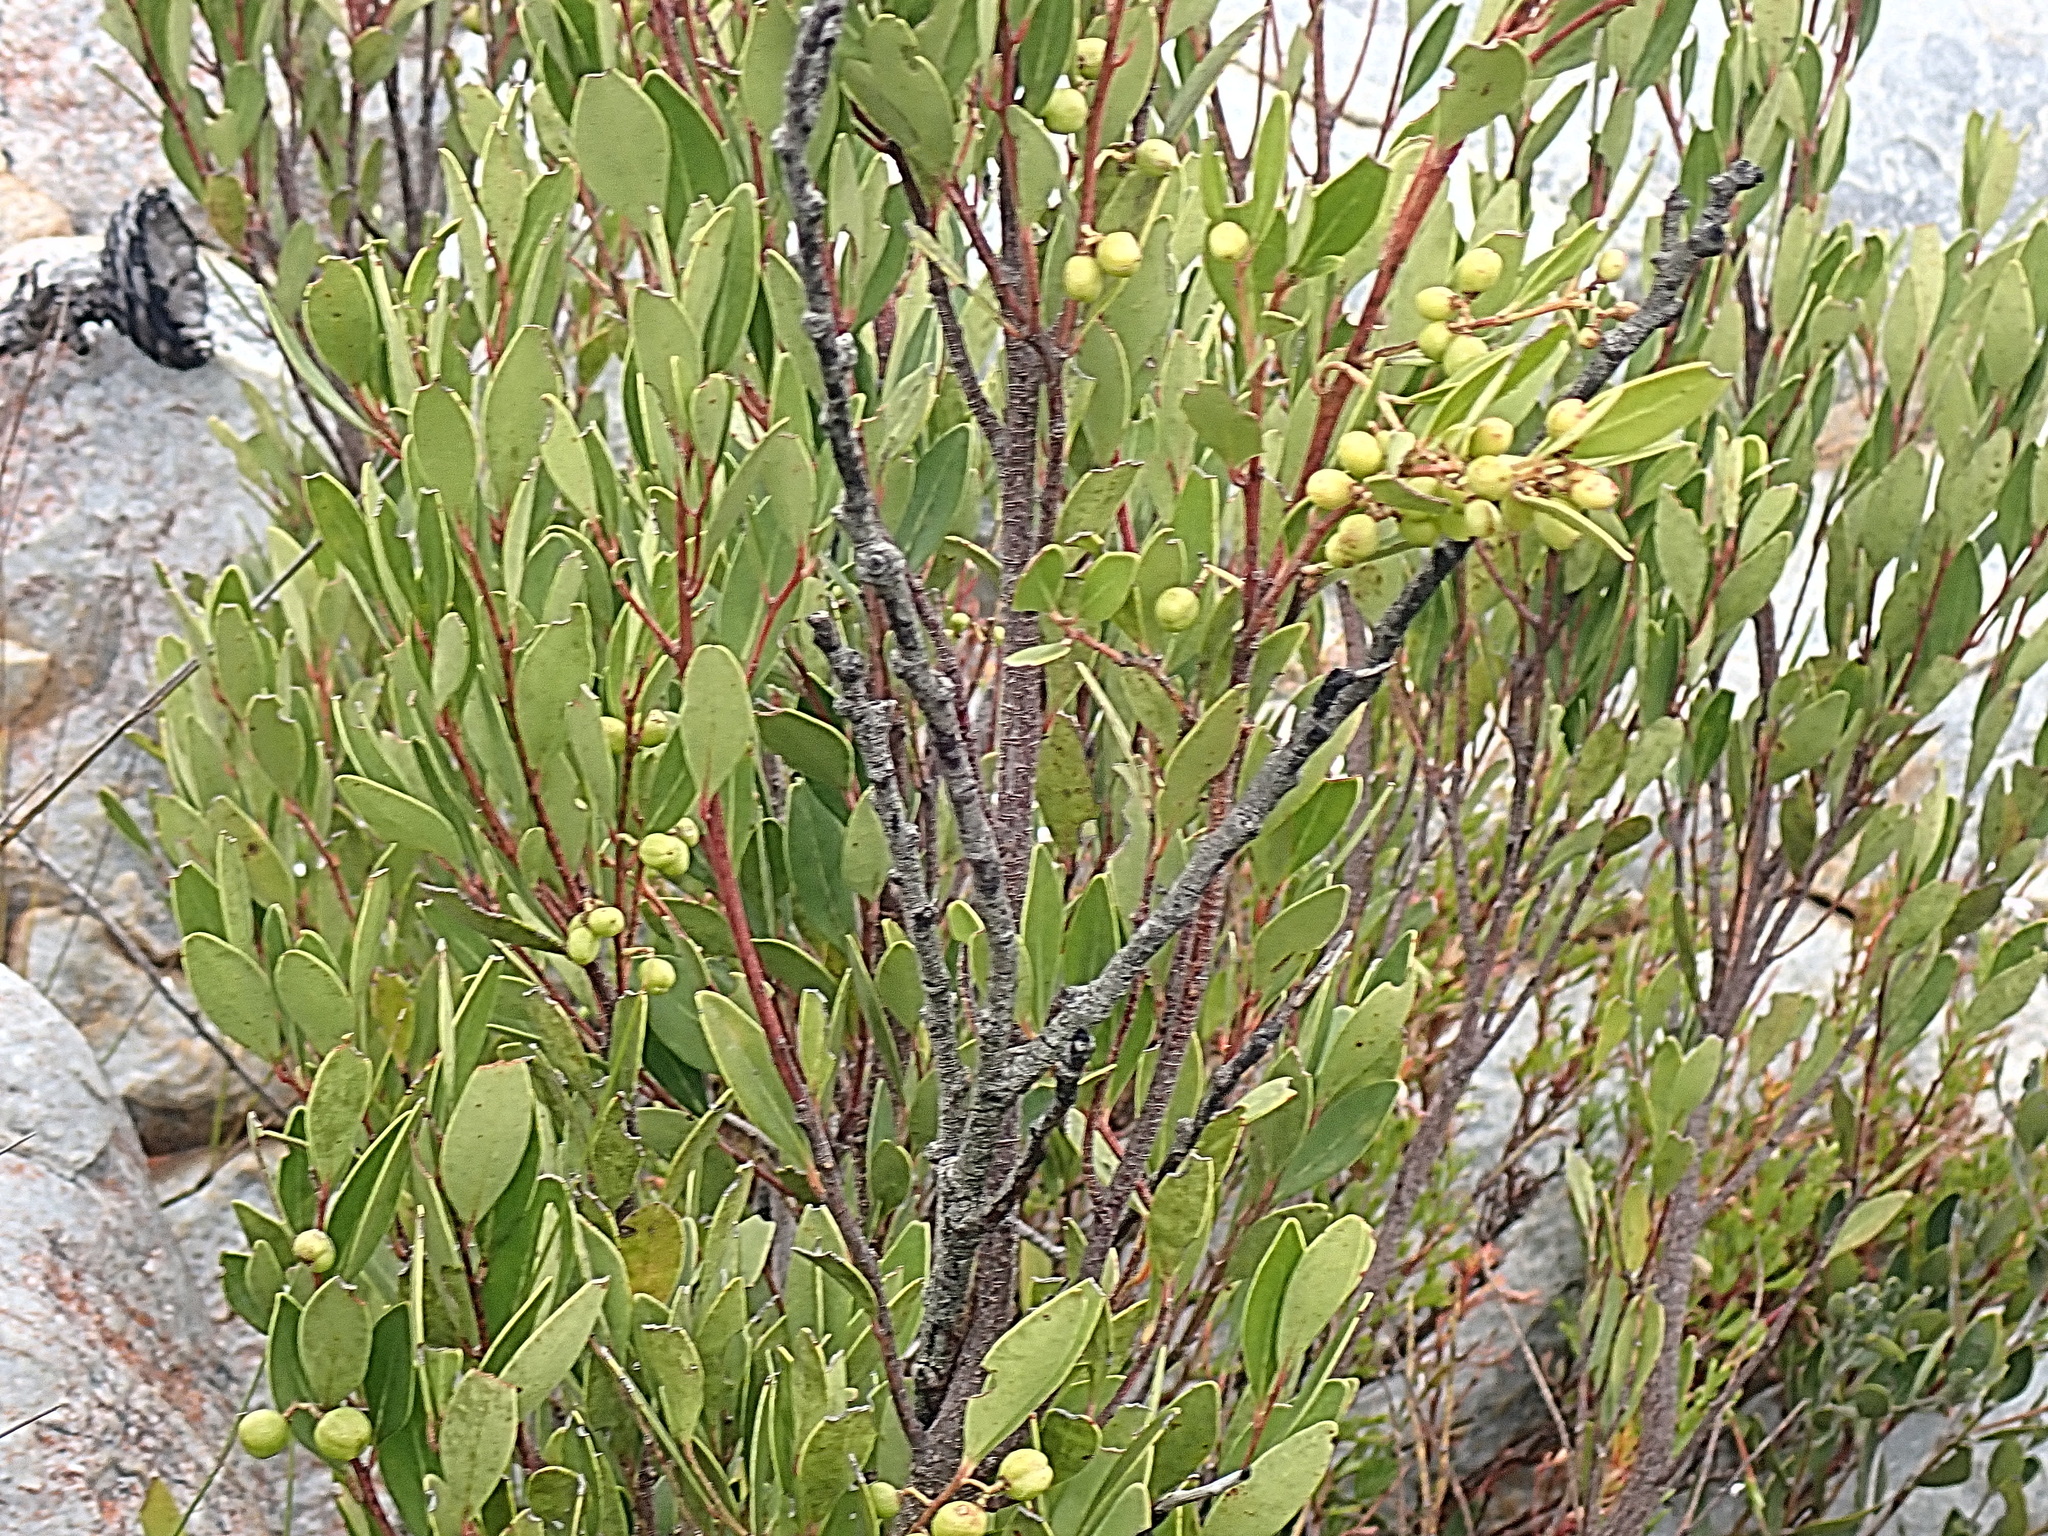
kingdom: Plantae
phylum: Tracheophyta
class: Magnoliopsida
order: Celastrales
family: Celastraceae
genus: Gymnosporia
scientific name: Gymnosporia laurina
